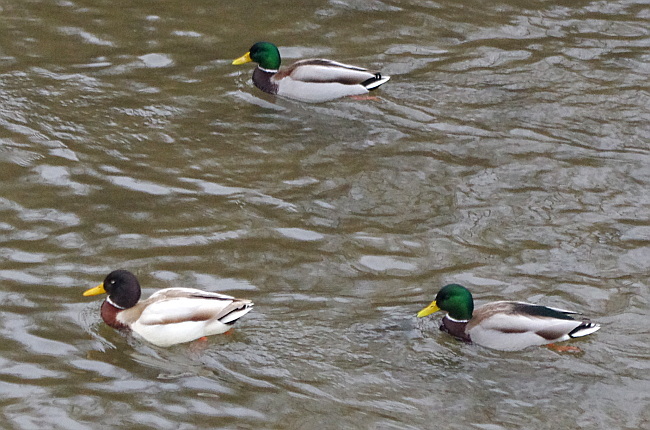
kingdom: Animalia
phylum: Chordata
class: Aves
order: Anseriformes
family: Anatidae
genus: Anas
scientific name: Anas platyrhynchos
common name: Mallard
